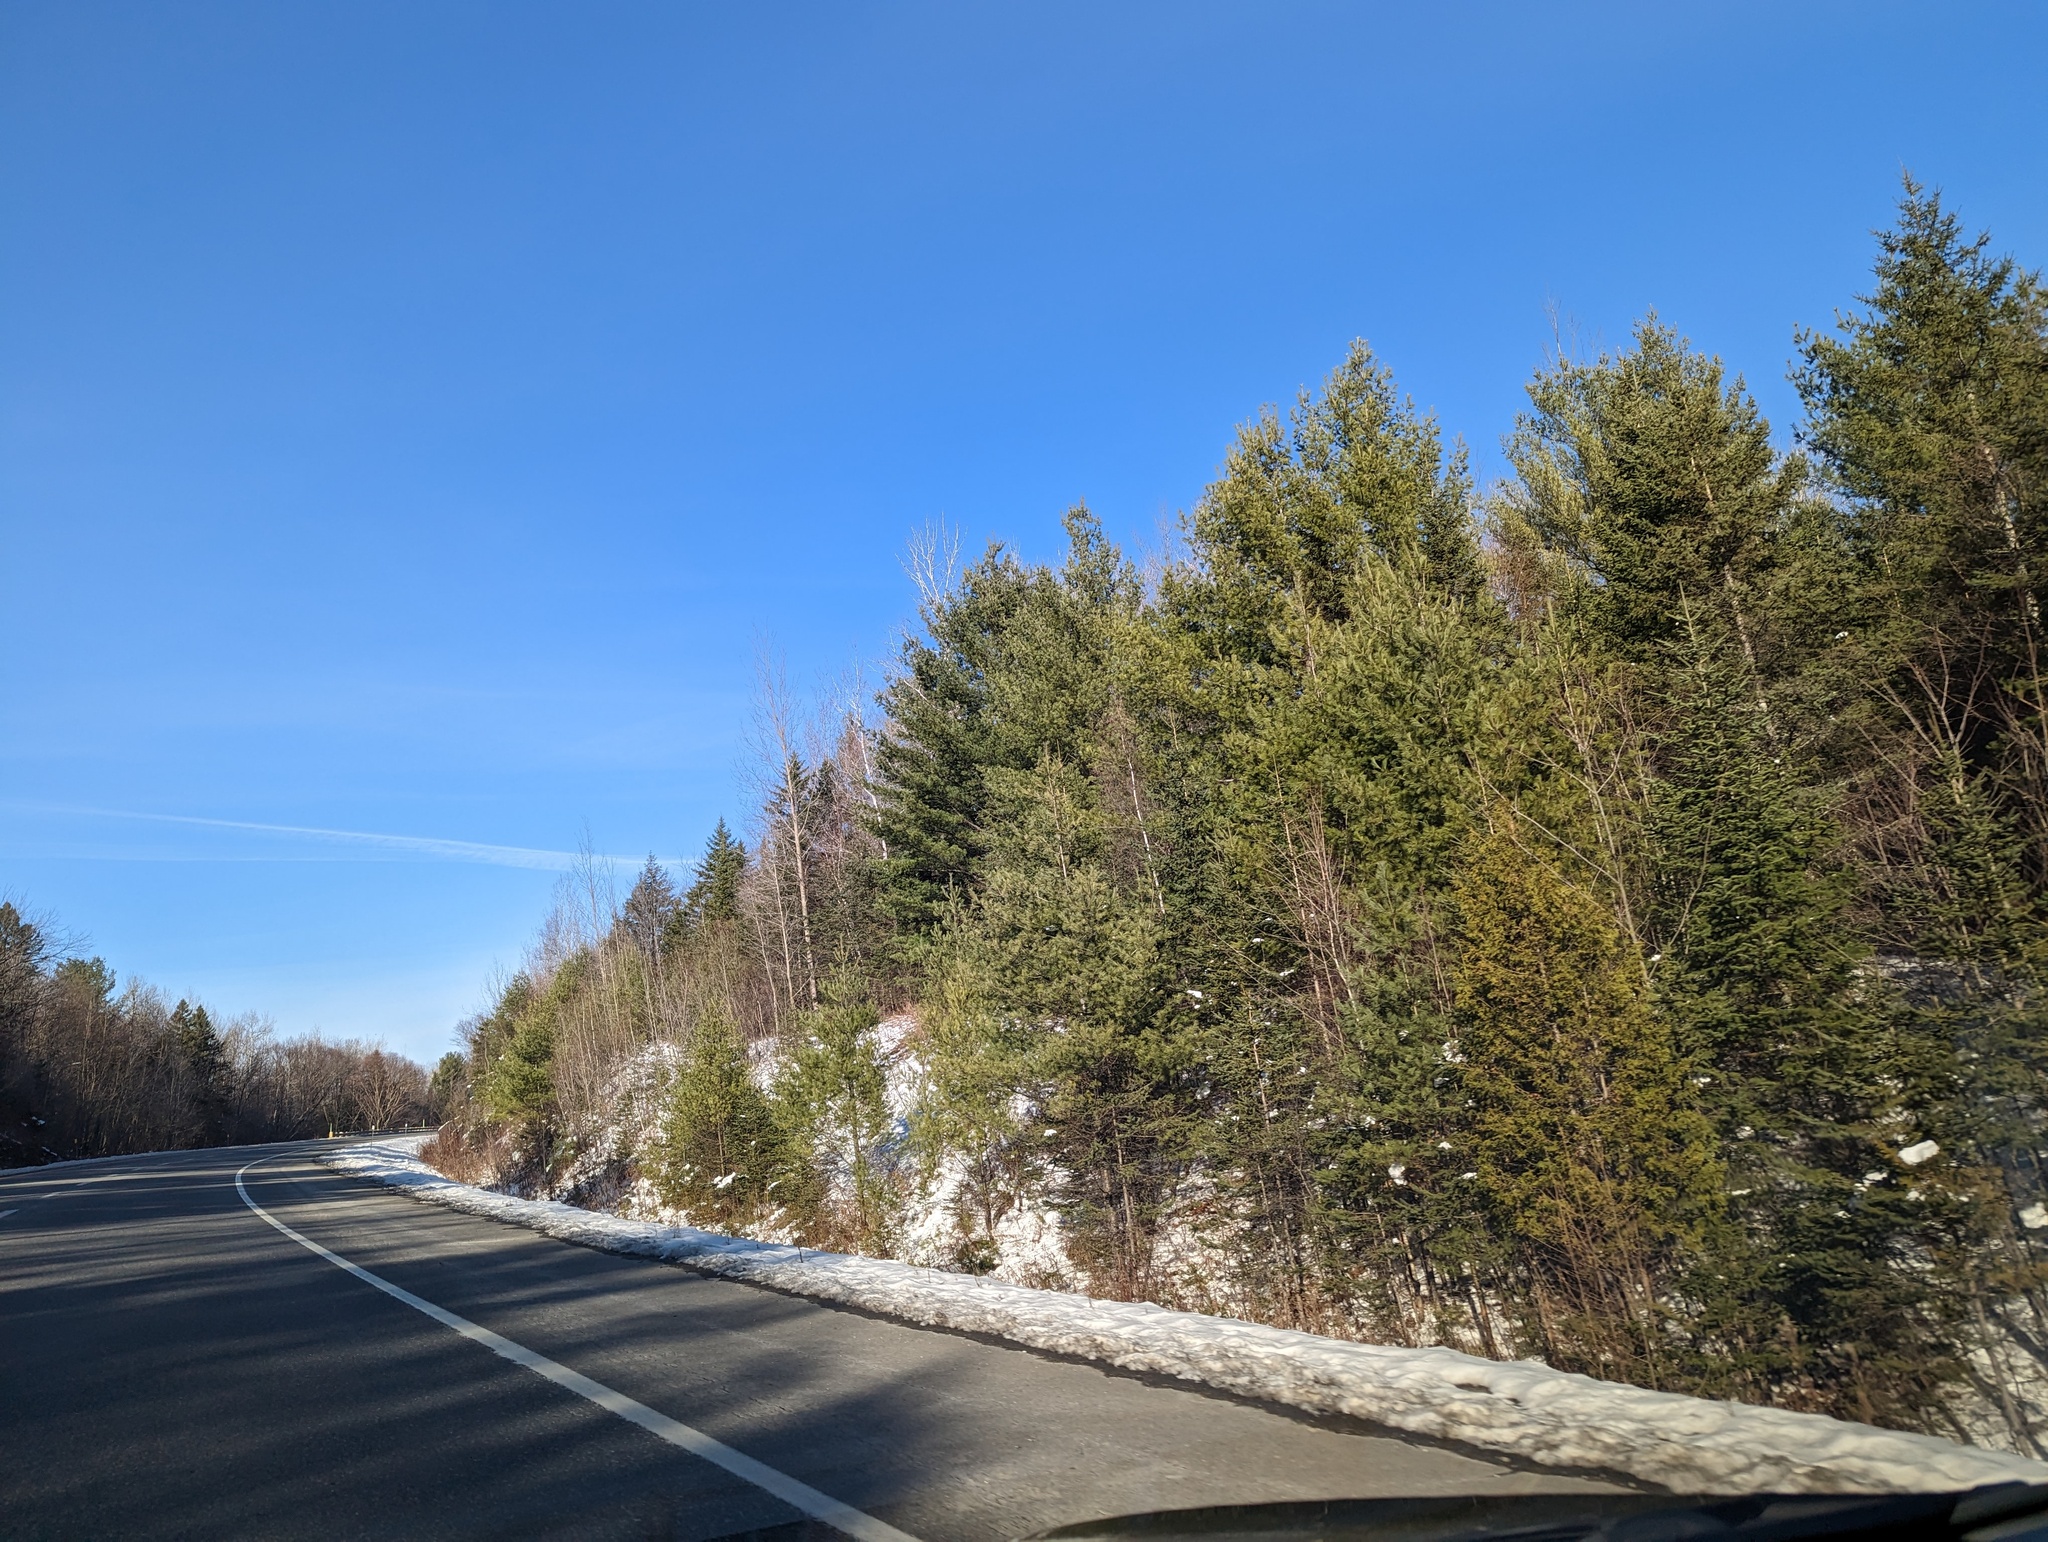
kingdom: Plantae
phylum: Tracheophyta
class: Pinopsida
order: Pinales
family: Pinaceae
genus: Pinus
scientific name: Pinus strobus
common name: Weymouth pine
